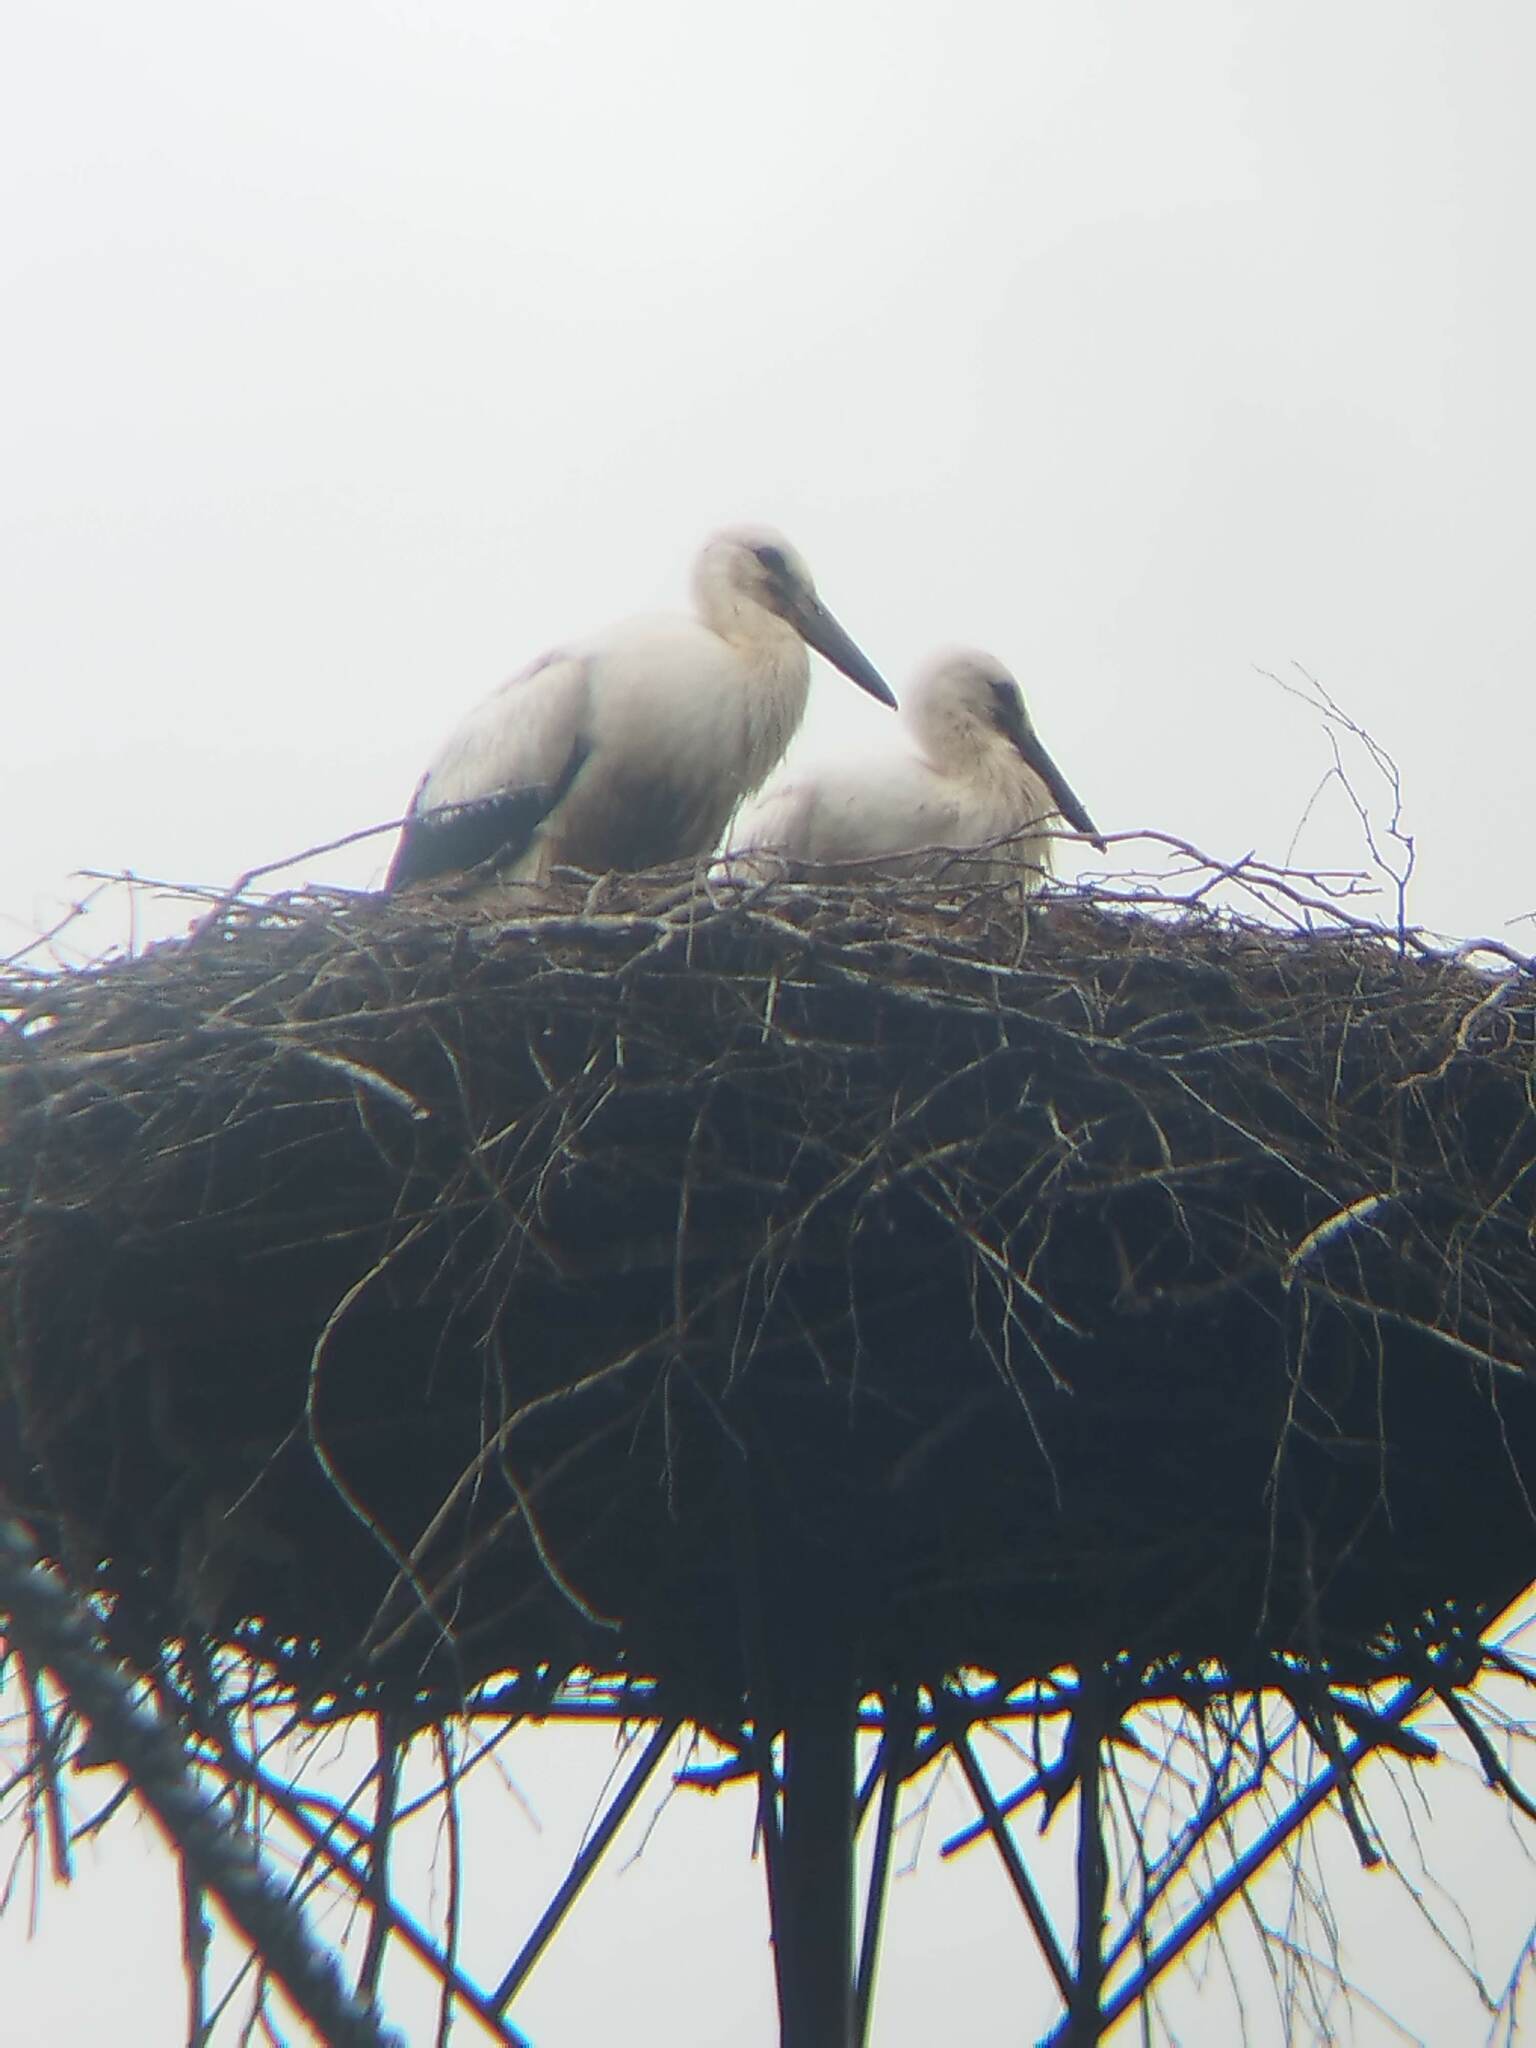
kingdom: Animalia
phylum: Chordata
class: Aves
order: Ciconiiformes
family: Ciconiidae
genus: Ciconia
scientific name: Ciconia ciconia
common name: White stork
